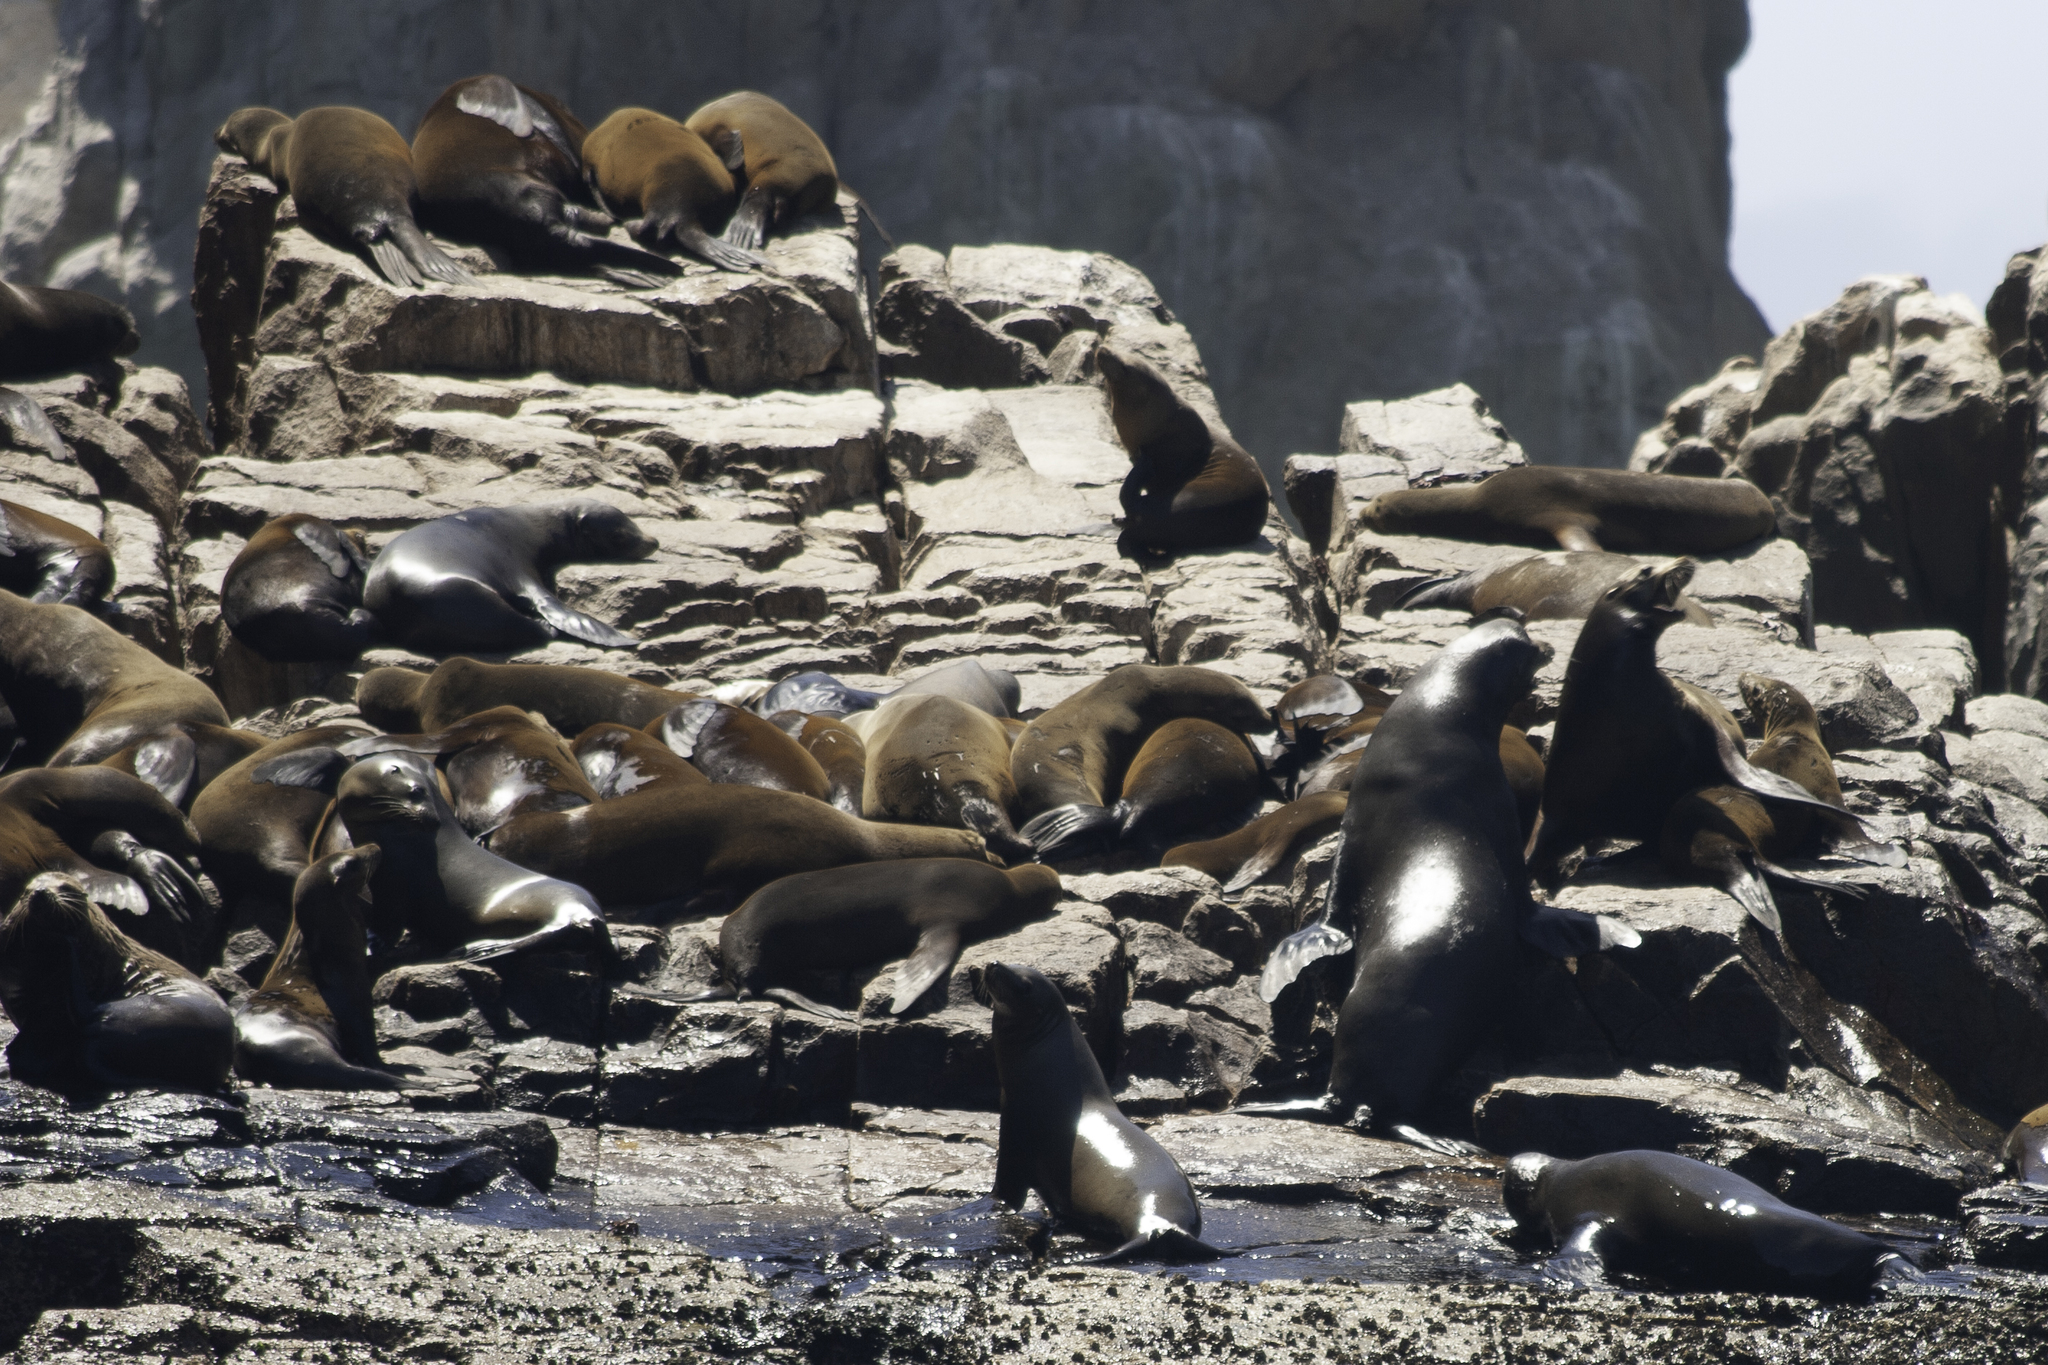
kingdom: Animalia
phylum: Chordata
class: Mammalia
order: Carnivora
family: Otariidae
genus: Zalophus
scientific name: Zalophus californianus
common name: California sea lion
